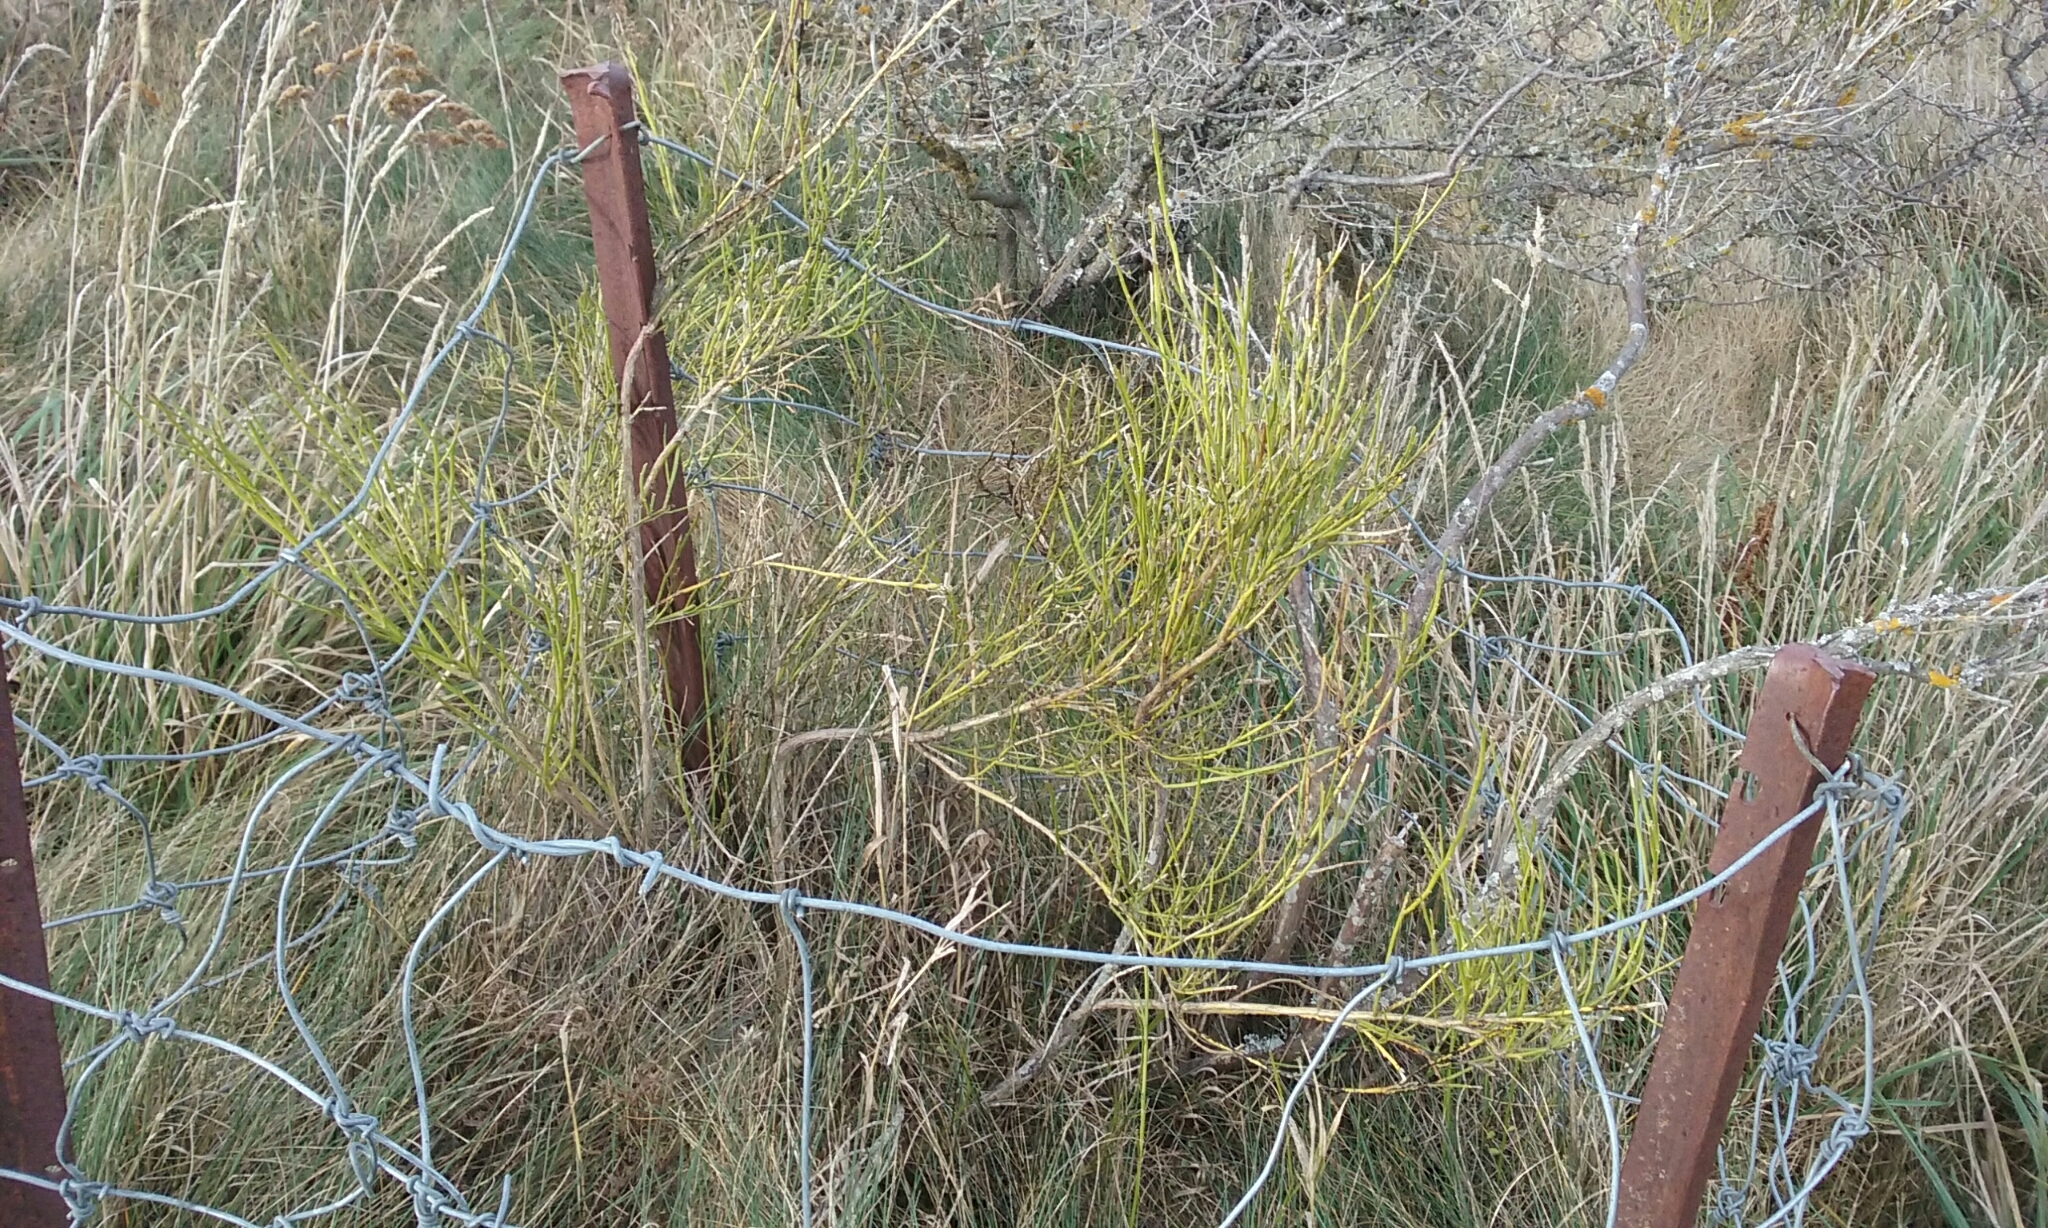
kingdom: Plantae
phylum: Tracheophyta
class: Magnoliopsida
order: Fabales
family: Fabaceae
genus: Carmichaelia
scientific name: Carmichaelia australis
